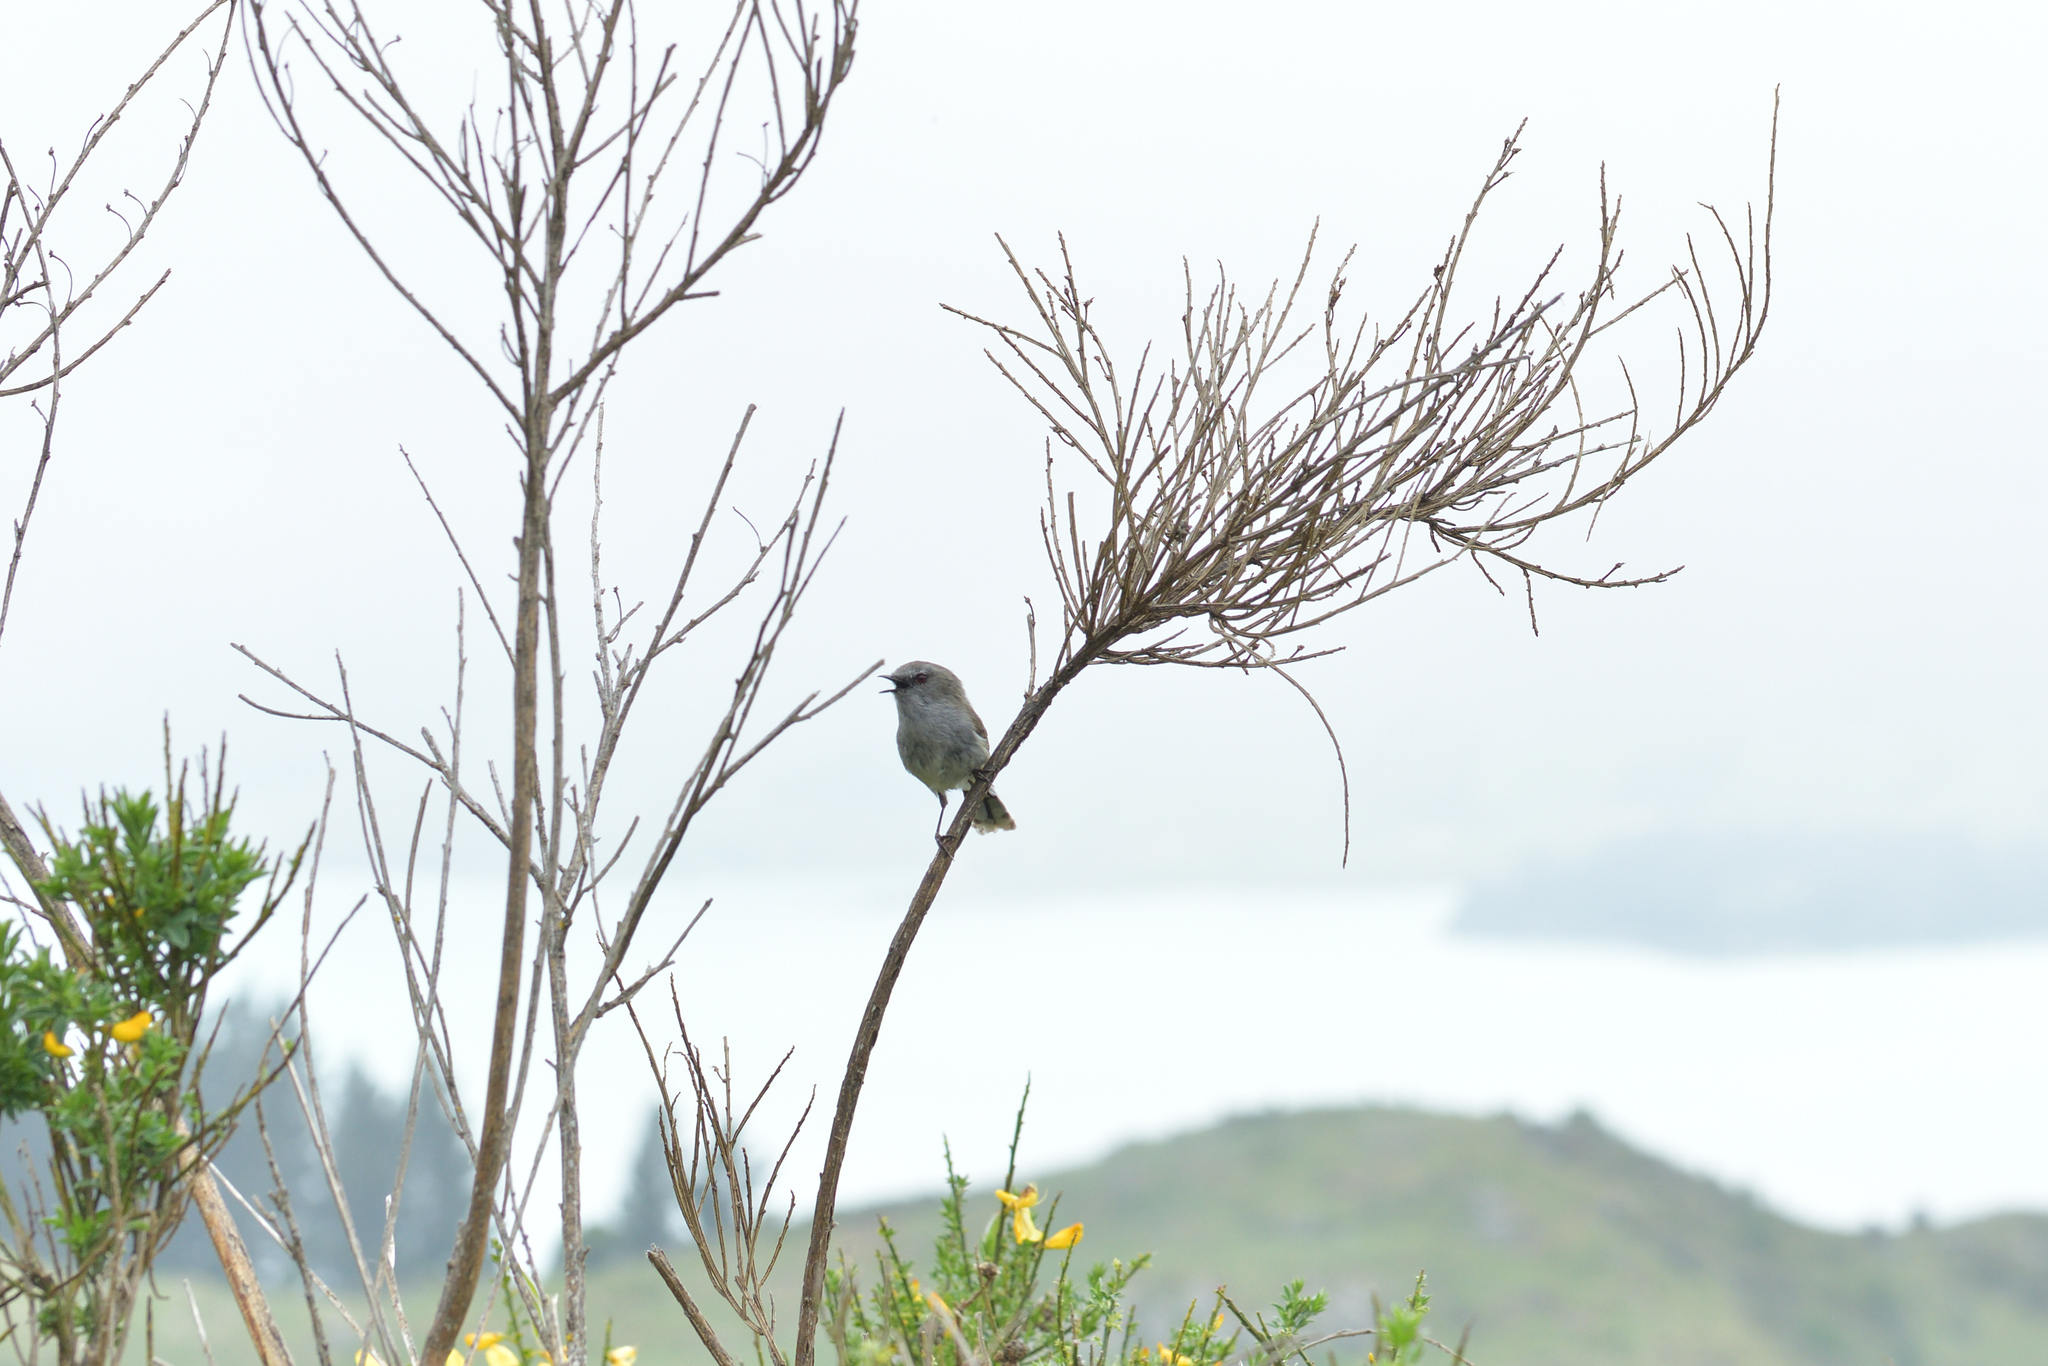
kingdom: Animalia
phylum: Chordata
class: Aves
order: Passeriformes
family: Acanthizidae
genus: Gerygone
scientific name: Gerygone igata
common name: Grey gerygone
